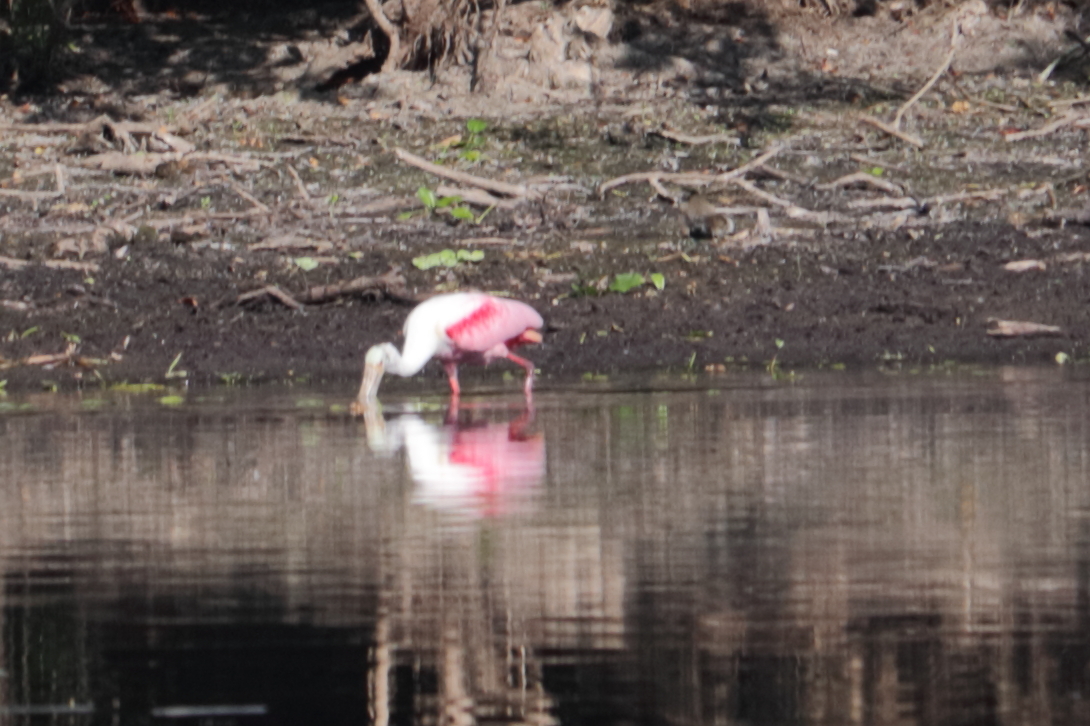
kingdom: Animalia
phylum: Chordata
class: Aves
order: Pelecaniformes
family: Threskiornithidae
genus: Platalea
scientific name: Platalea ajaja
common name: Roseate spoonbill
